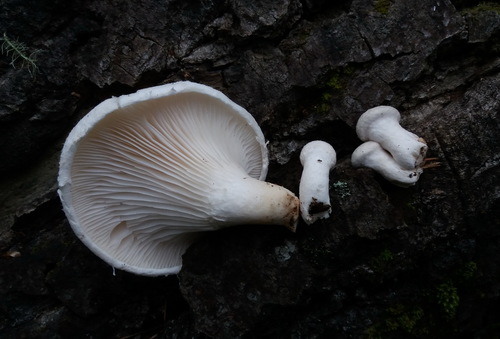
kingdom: Fungi
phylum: Basidiomycota
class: Agaricomycetes
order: Agaricales
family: Pleurotaceae
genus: Pleurotus
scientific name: Pleurotus dryinus
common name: Veiled oyster
